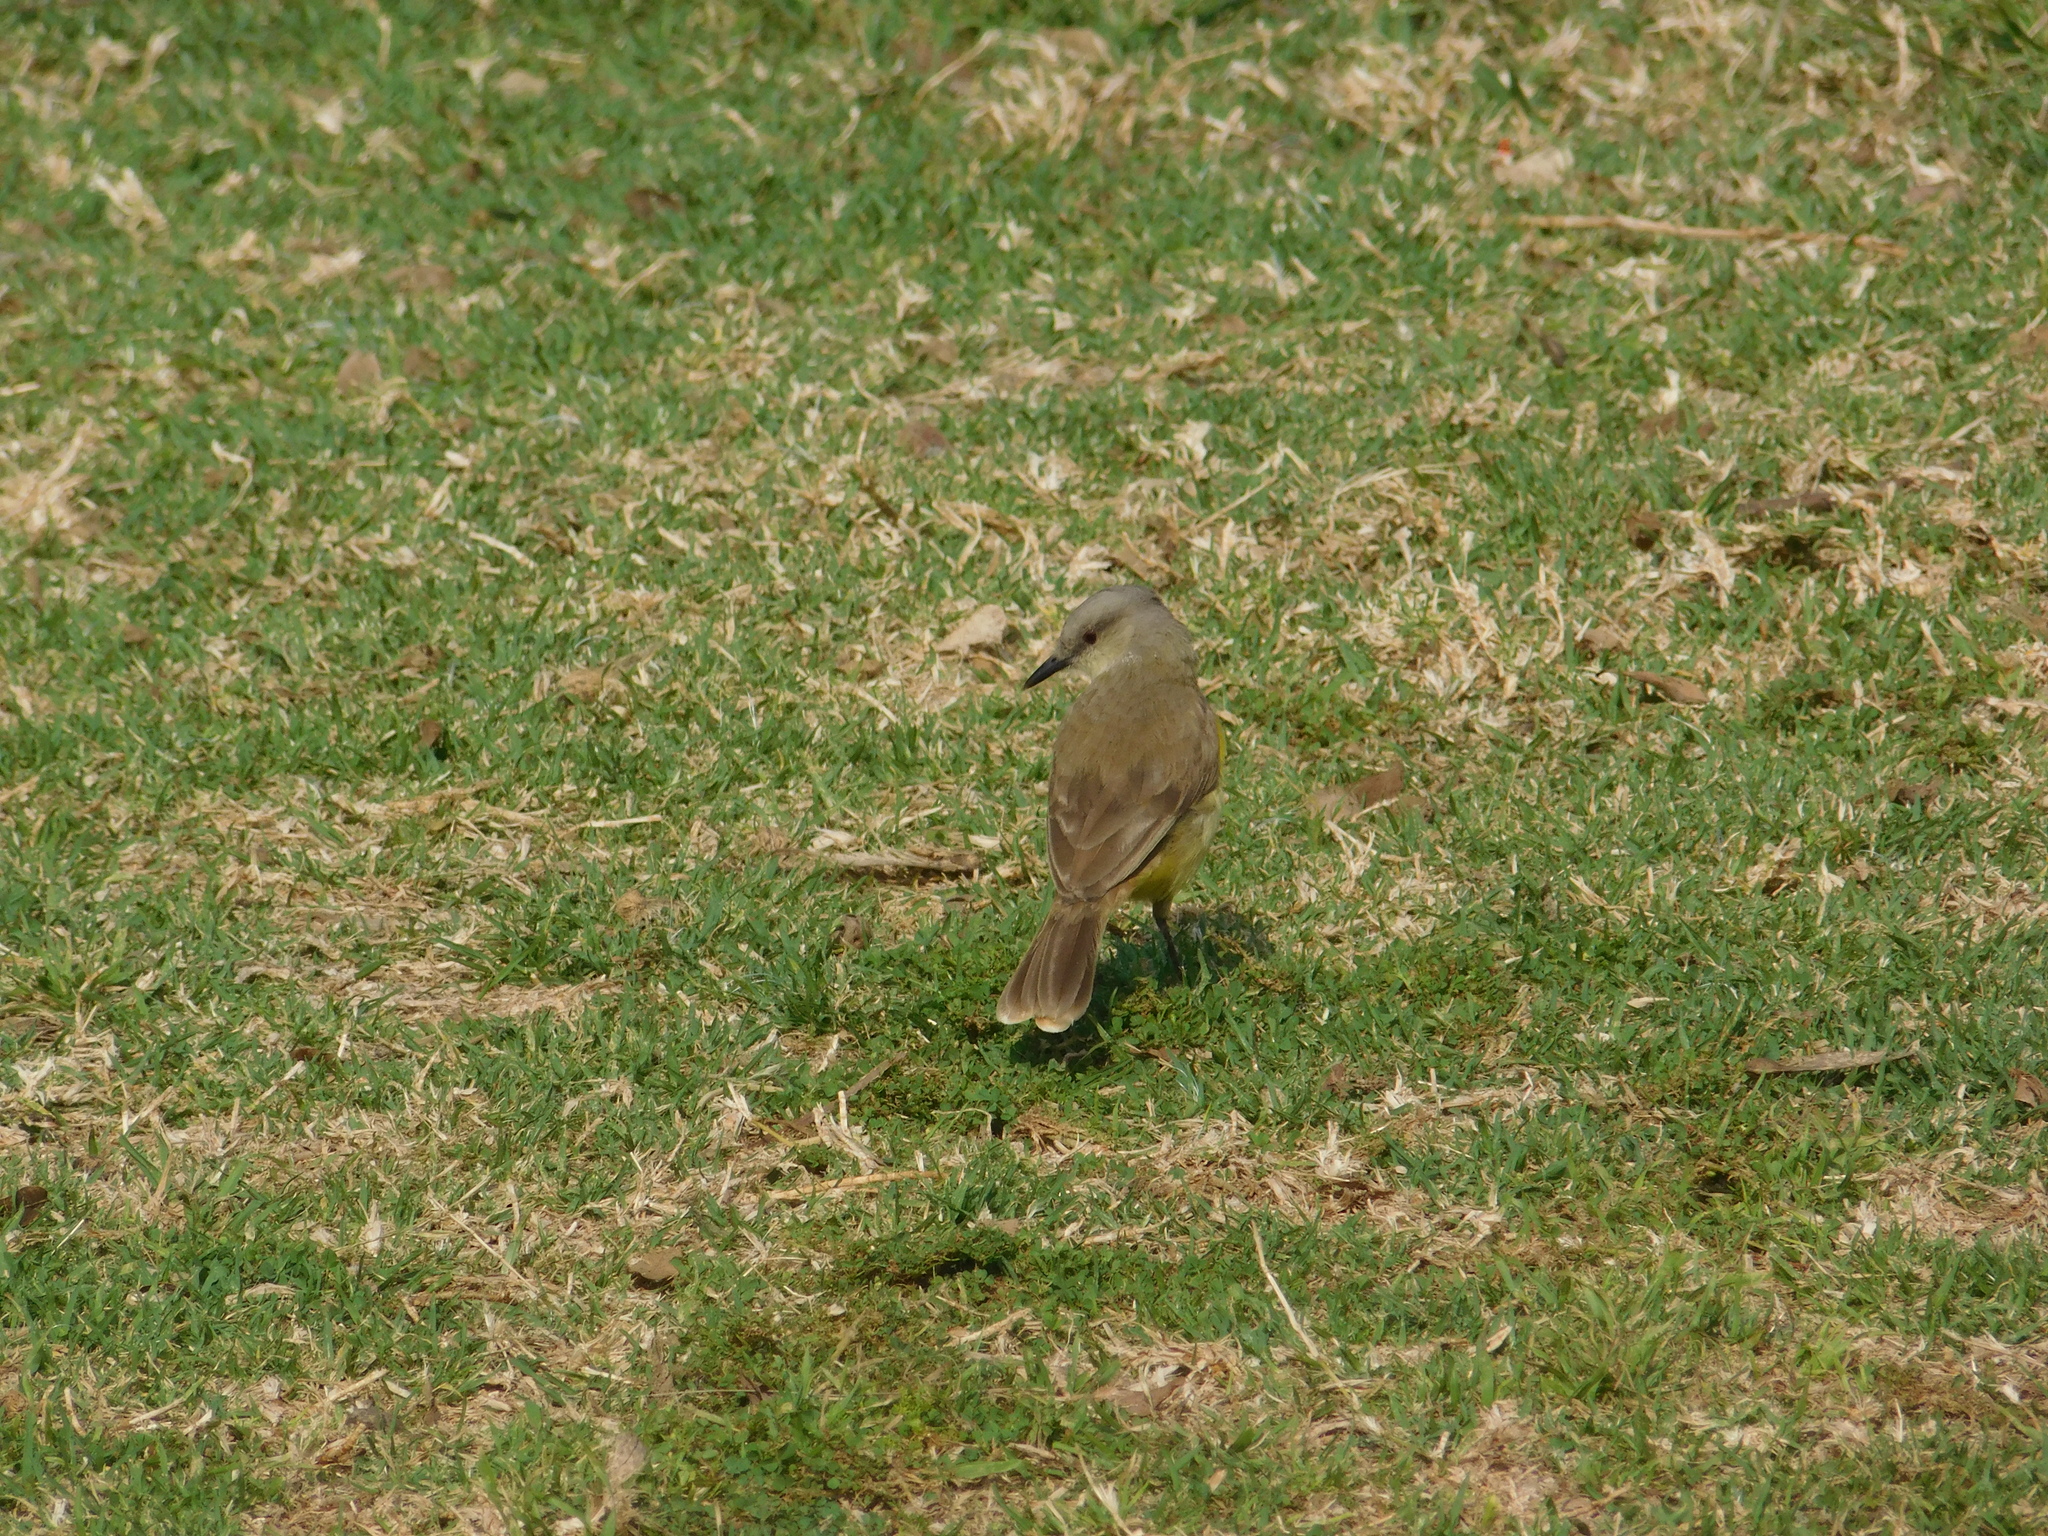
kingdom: Animalia
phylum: Chordata
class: Aves
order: Passeriformes
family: Tyrannidae
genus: Machetornis
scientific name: Machetornis rixosa
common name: Cattle tyrant
